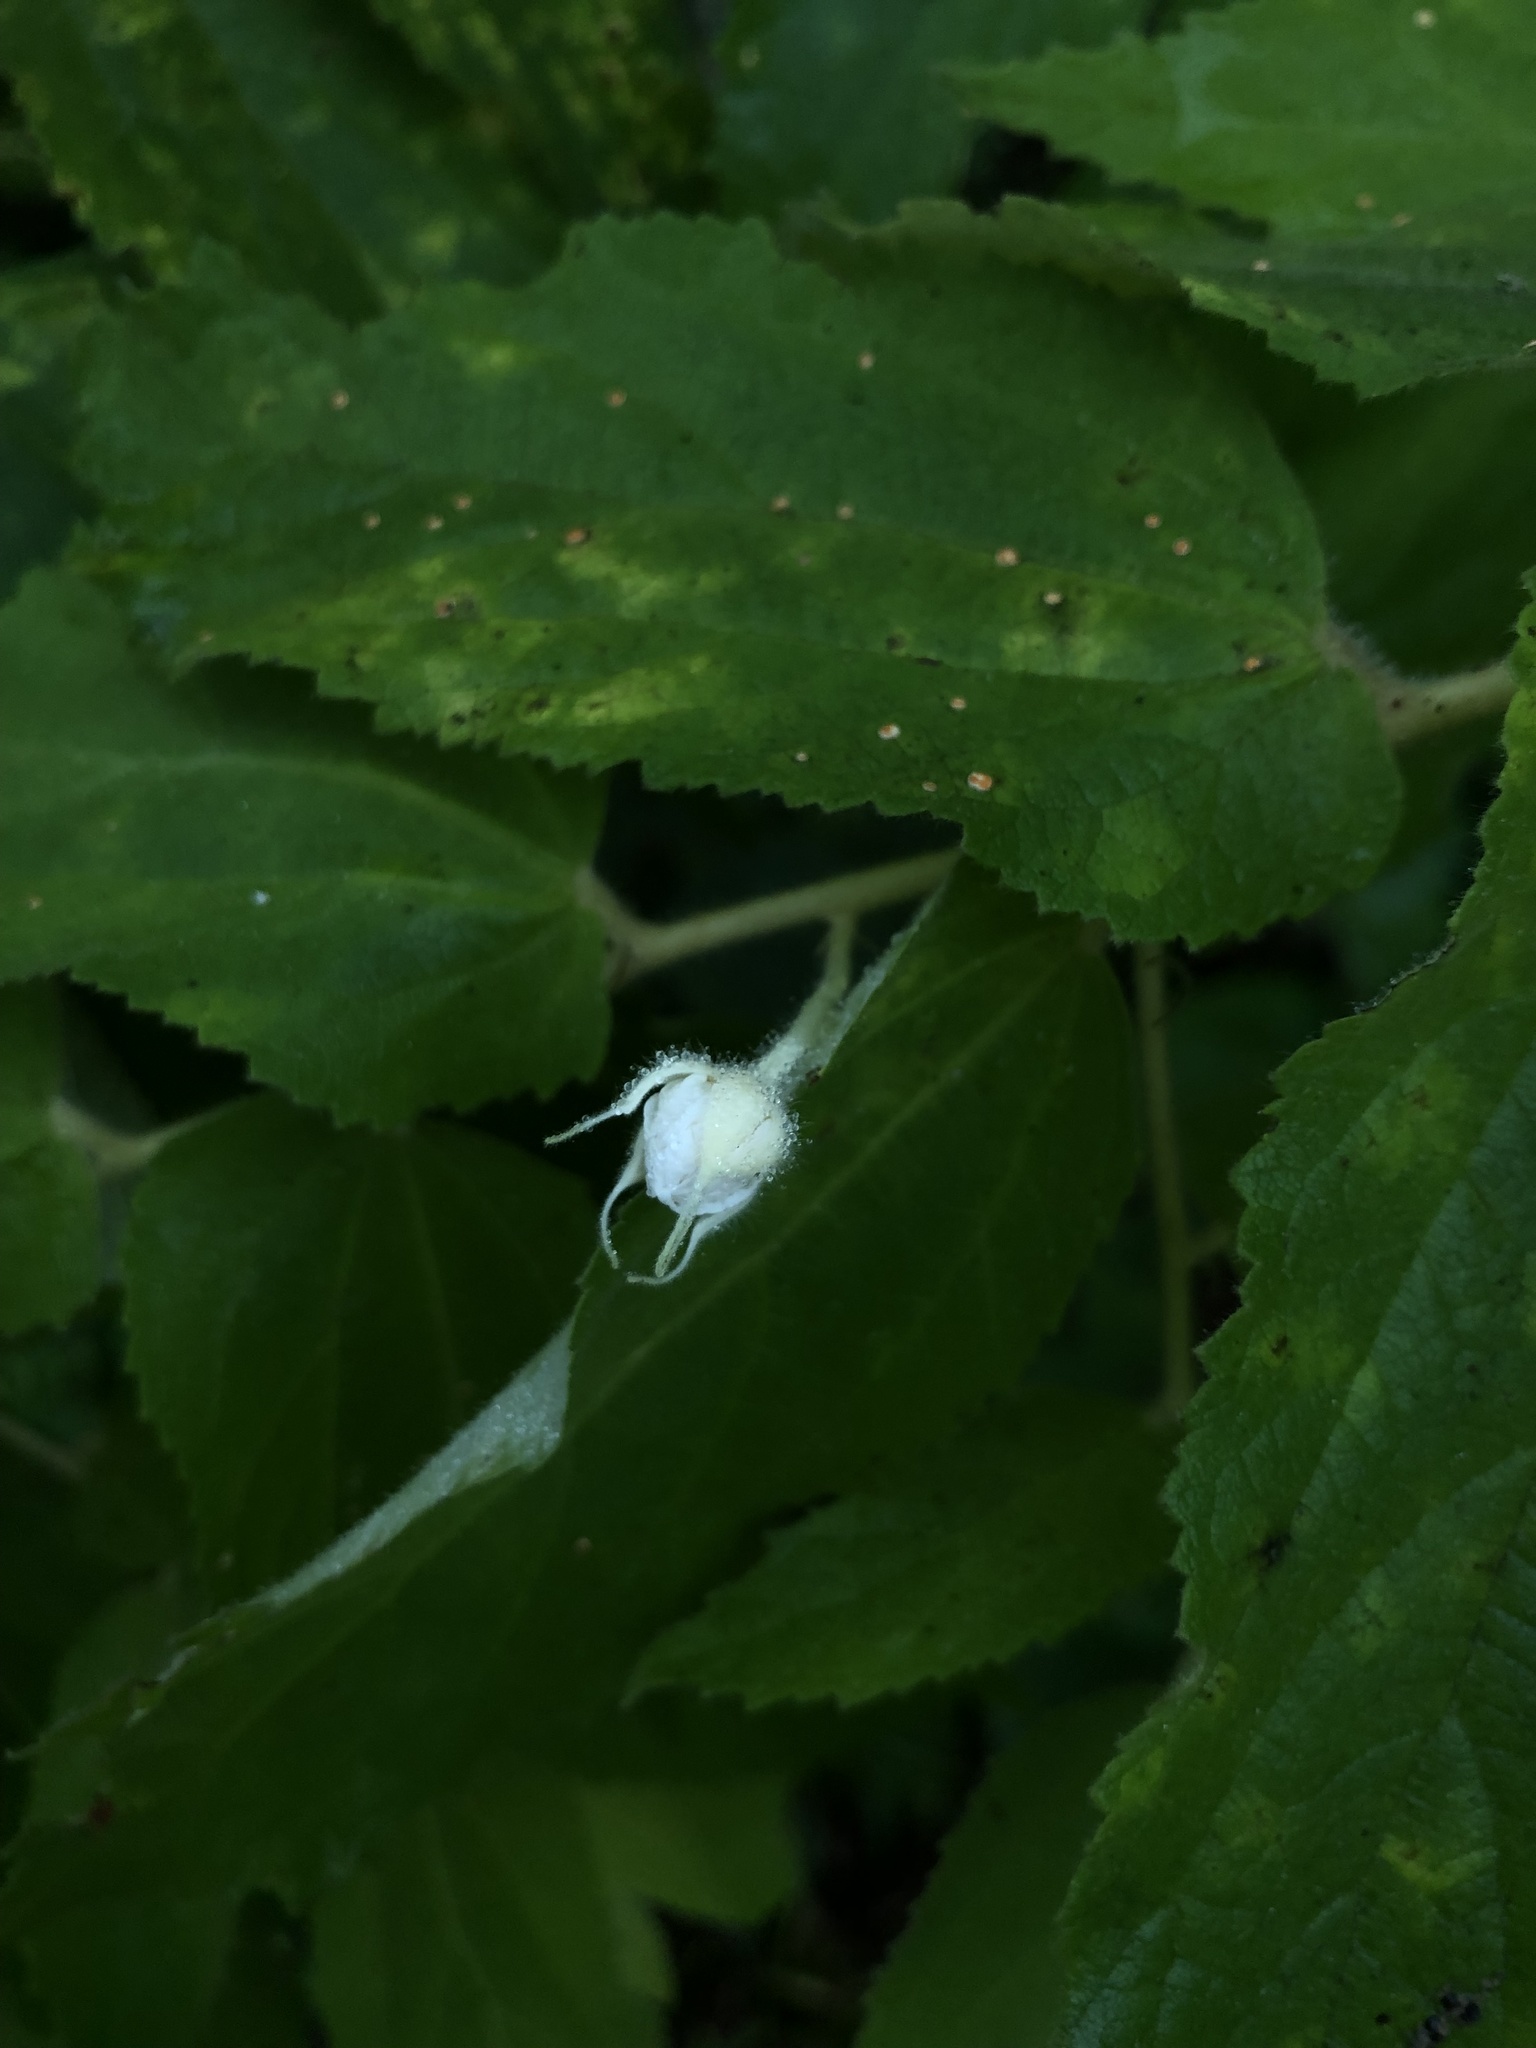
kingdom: Plantae
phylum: Tracheophyta
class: Magnoliopsida
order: Malvales
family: Muntingiaceae
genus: Muntingia
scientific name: Muntingia calabura
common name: Strawberrytree
